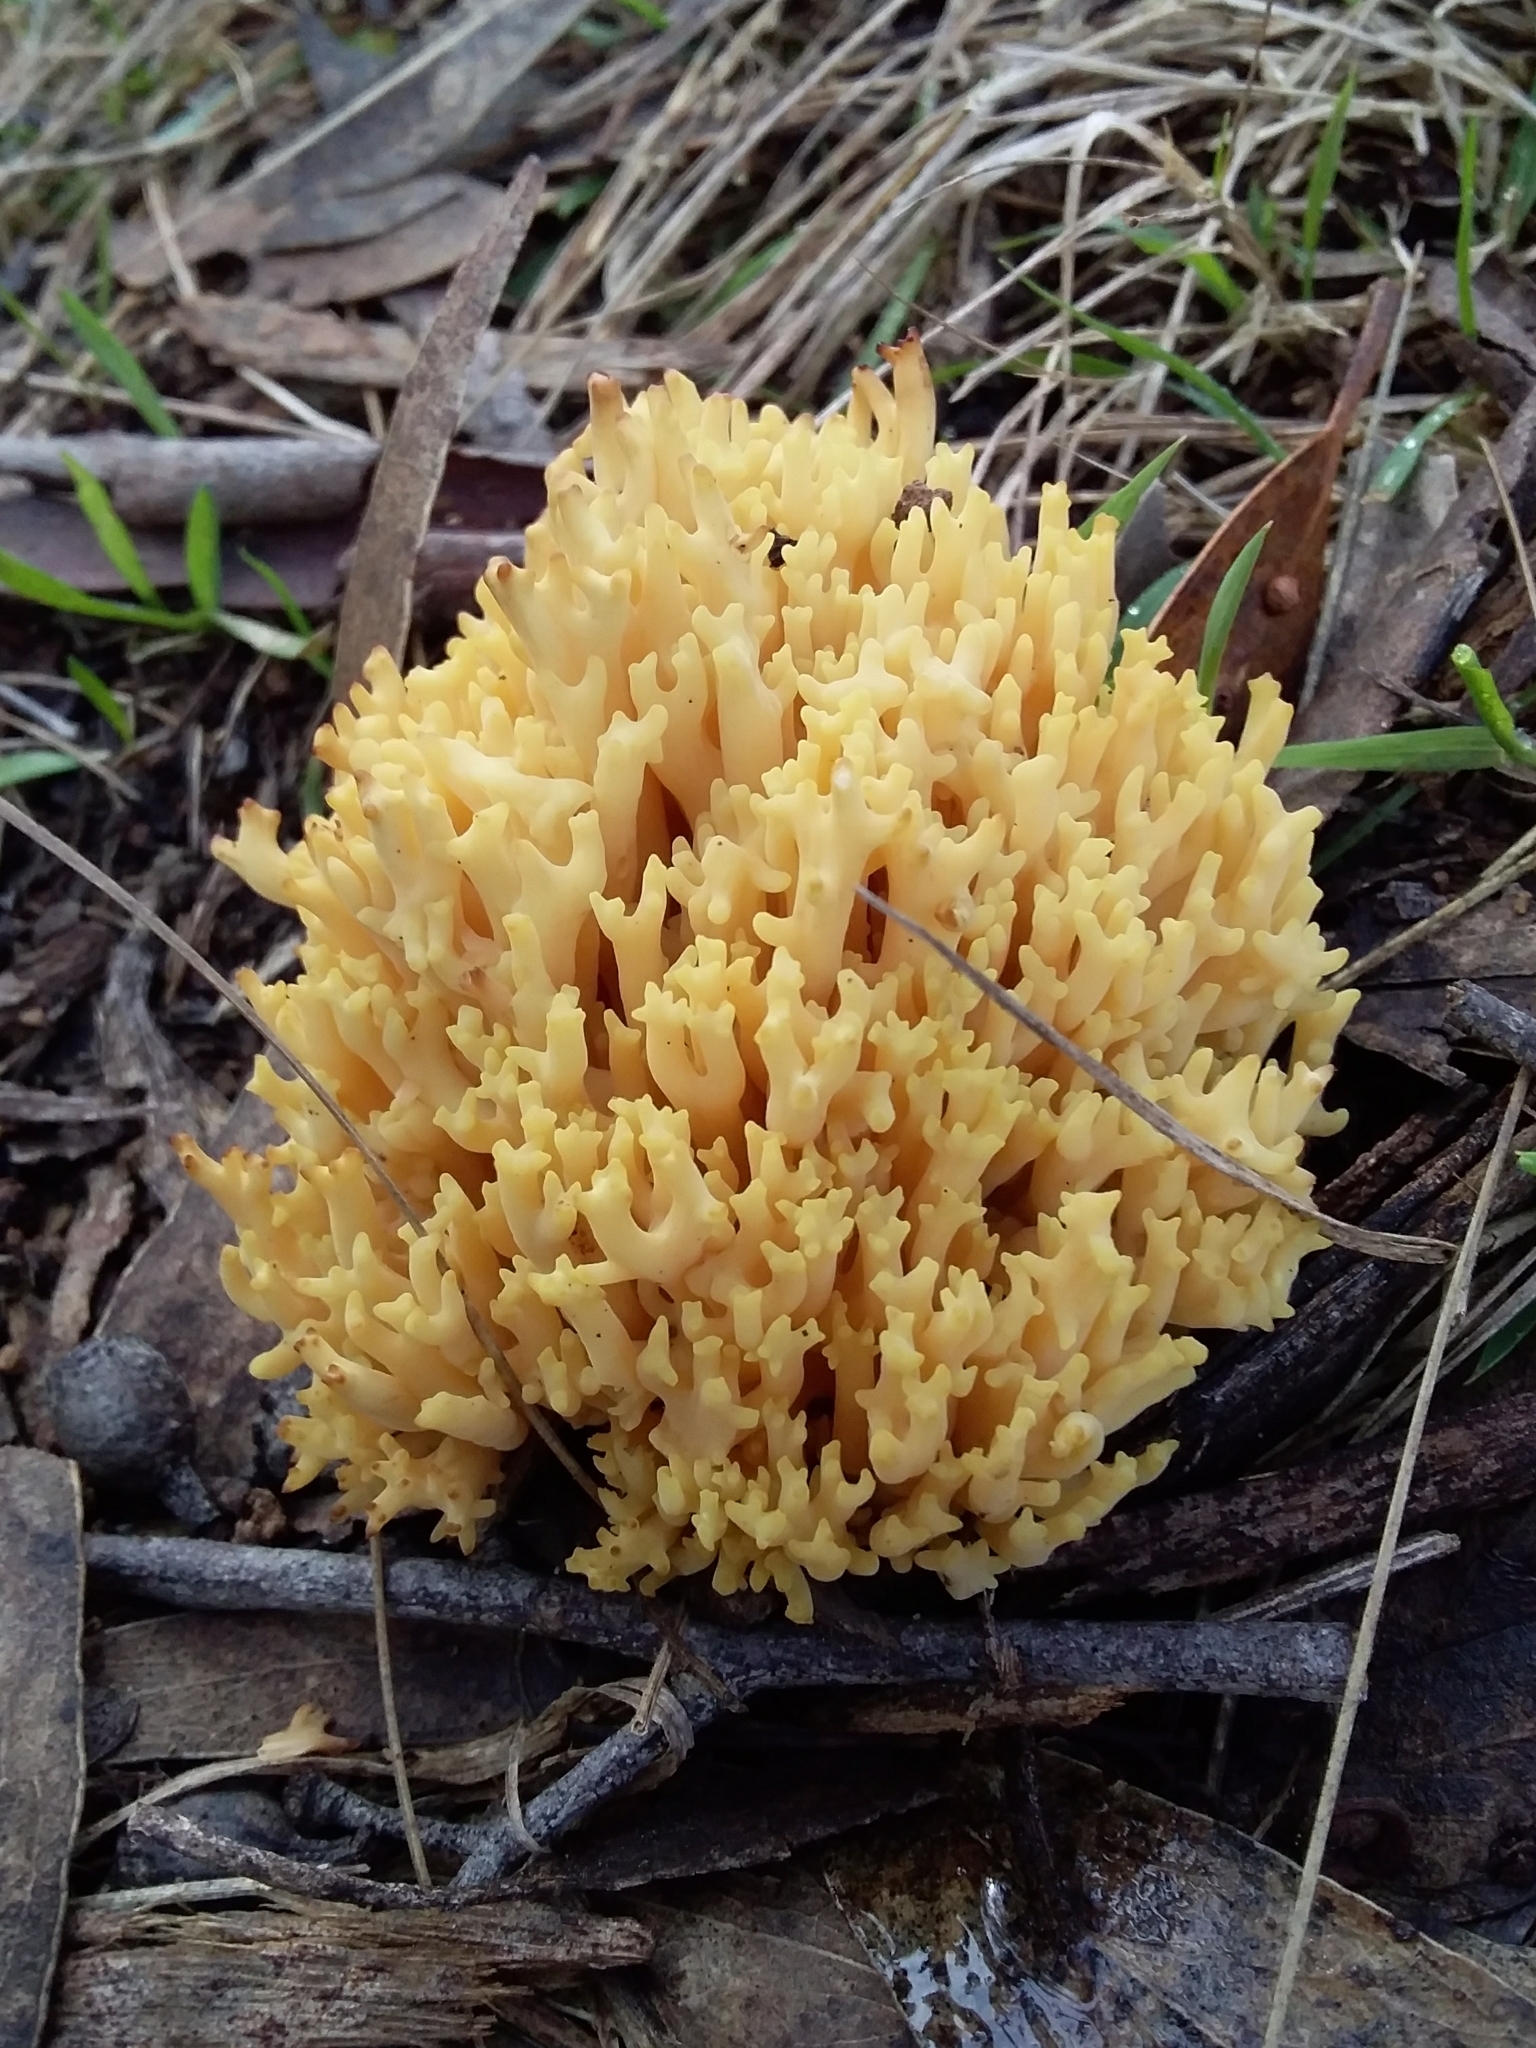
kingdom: Fungi
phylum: Basidiomycota
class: Agaricomycetes
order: Gomphales
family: Gomphaceae
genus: Ramaria
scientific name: Ramaria watlingii
